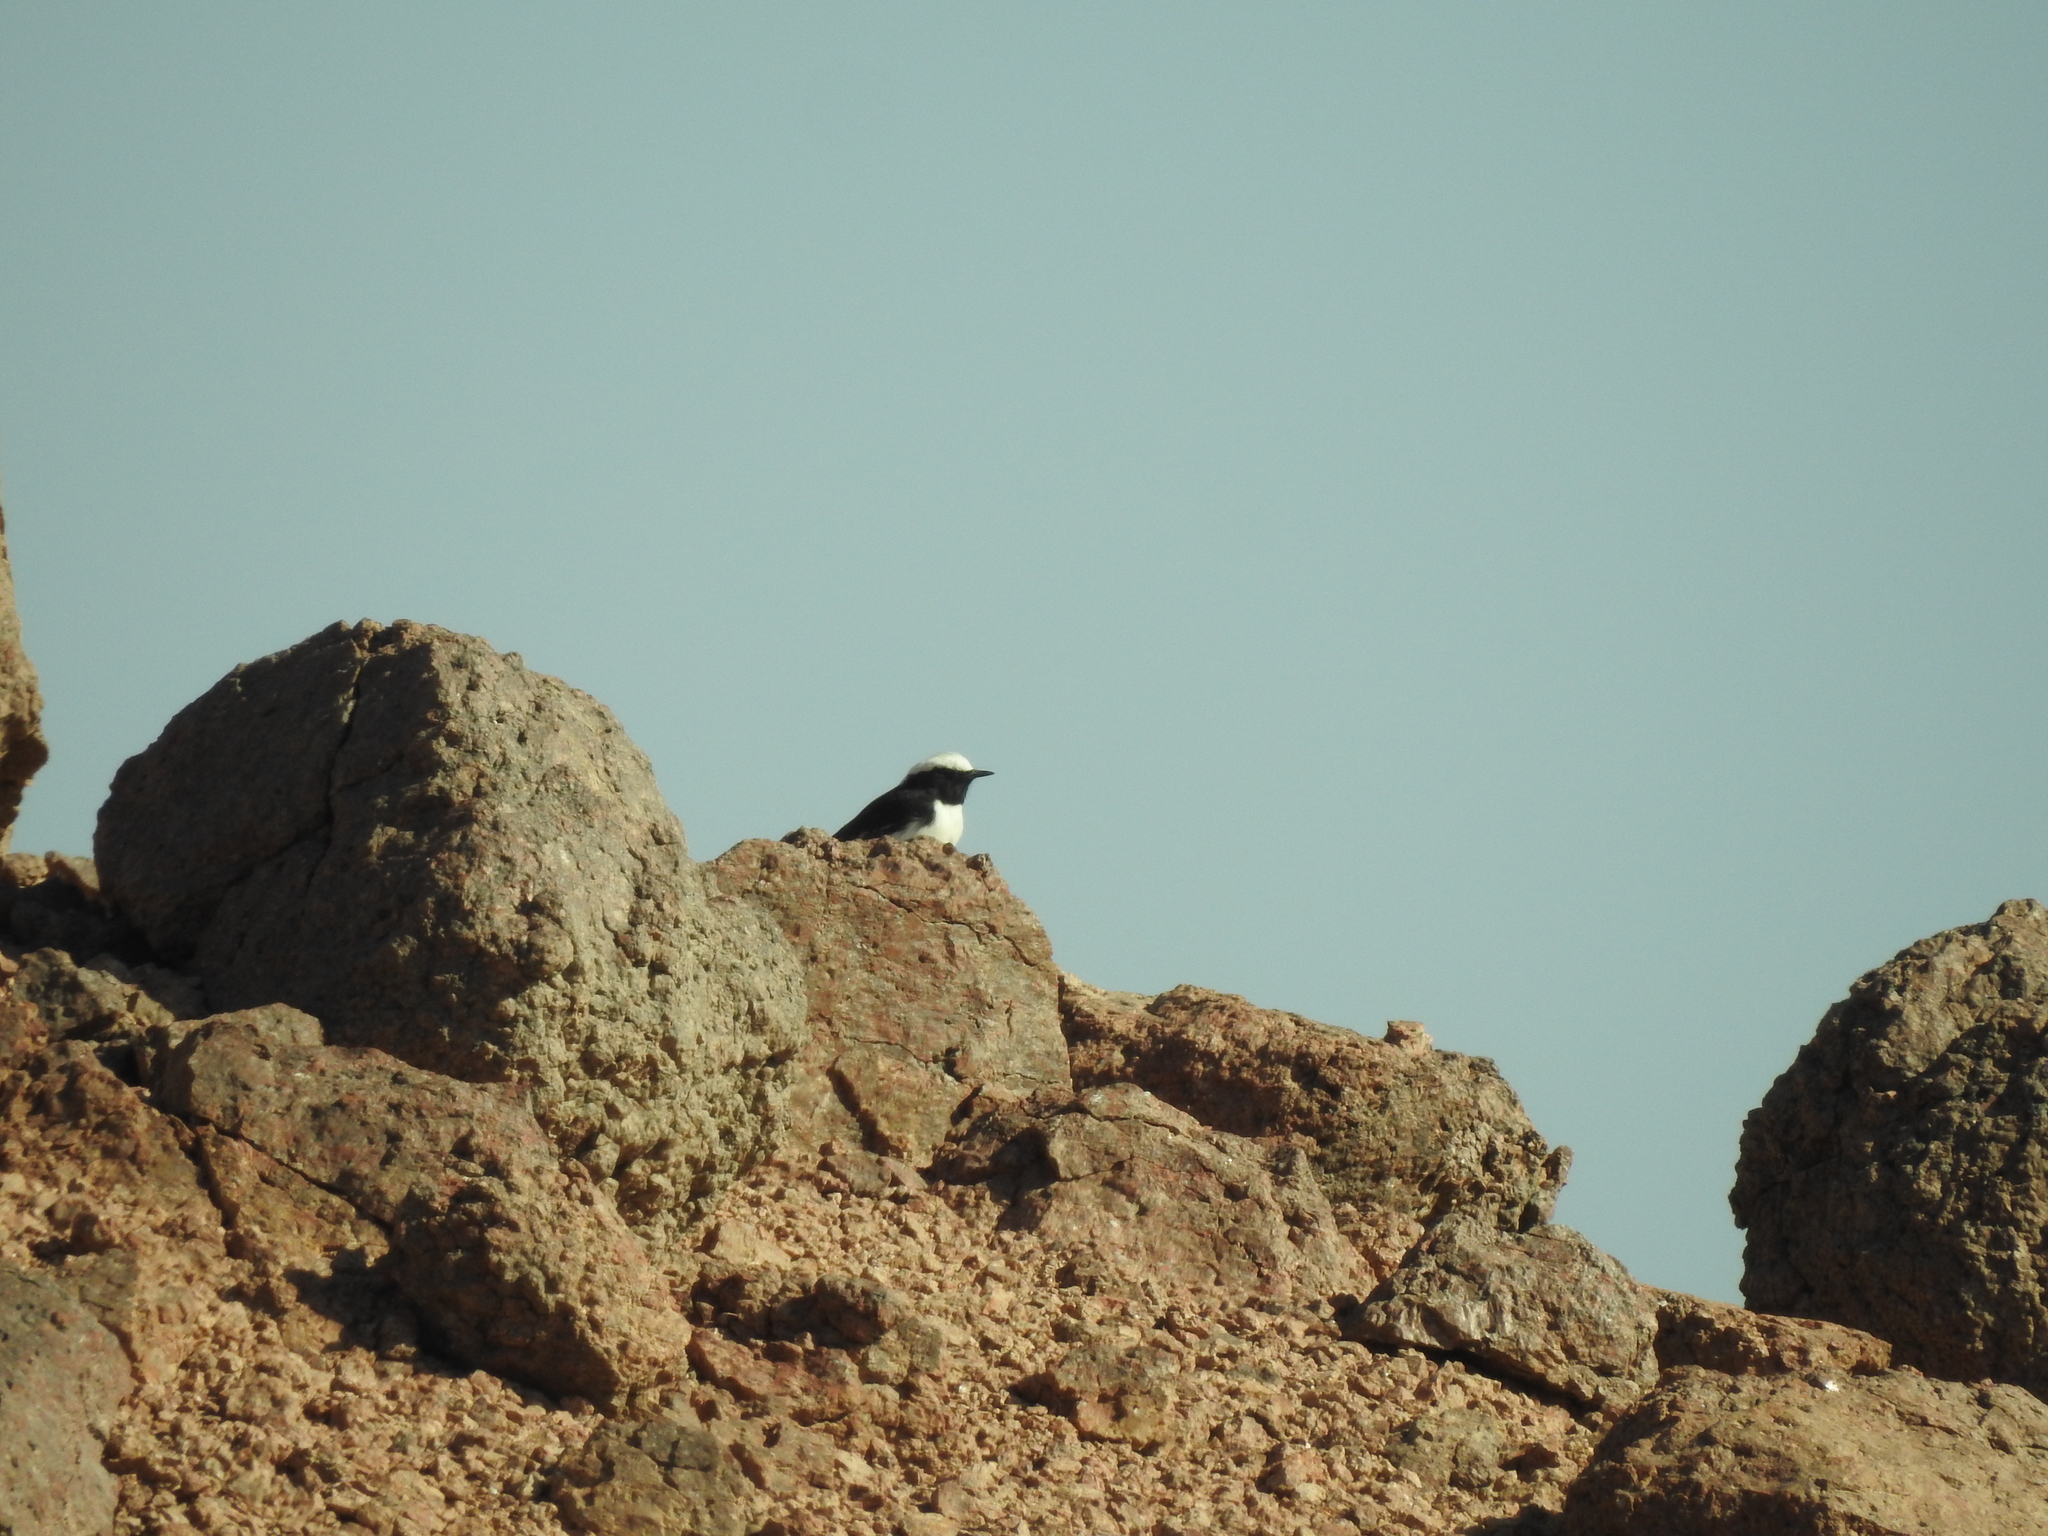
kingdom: Animalia
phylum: Chordata
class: Aves
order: Passeriformes
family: Muscicapidae
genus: Oenanthe
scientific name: Oenanthe lugens
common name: Mourning wheatear
